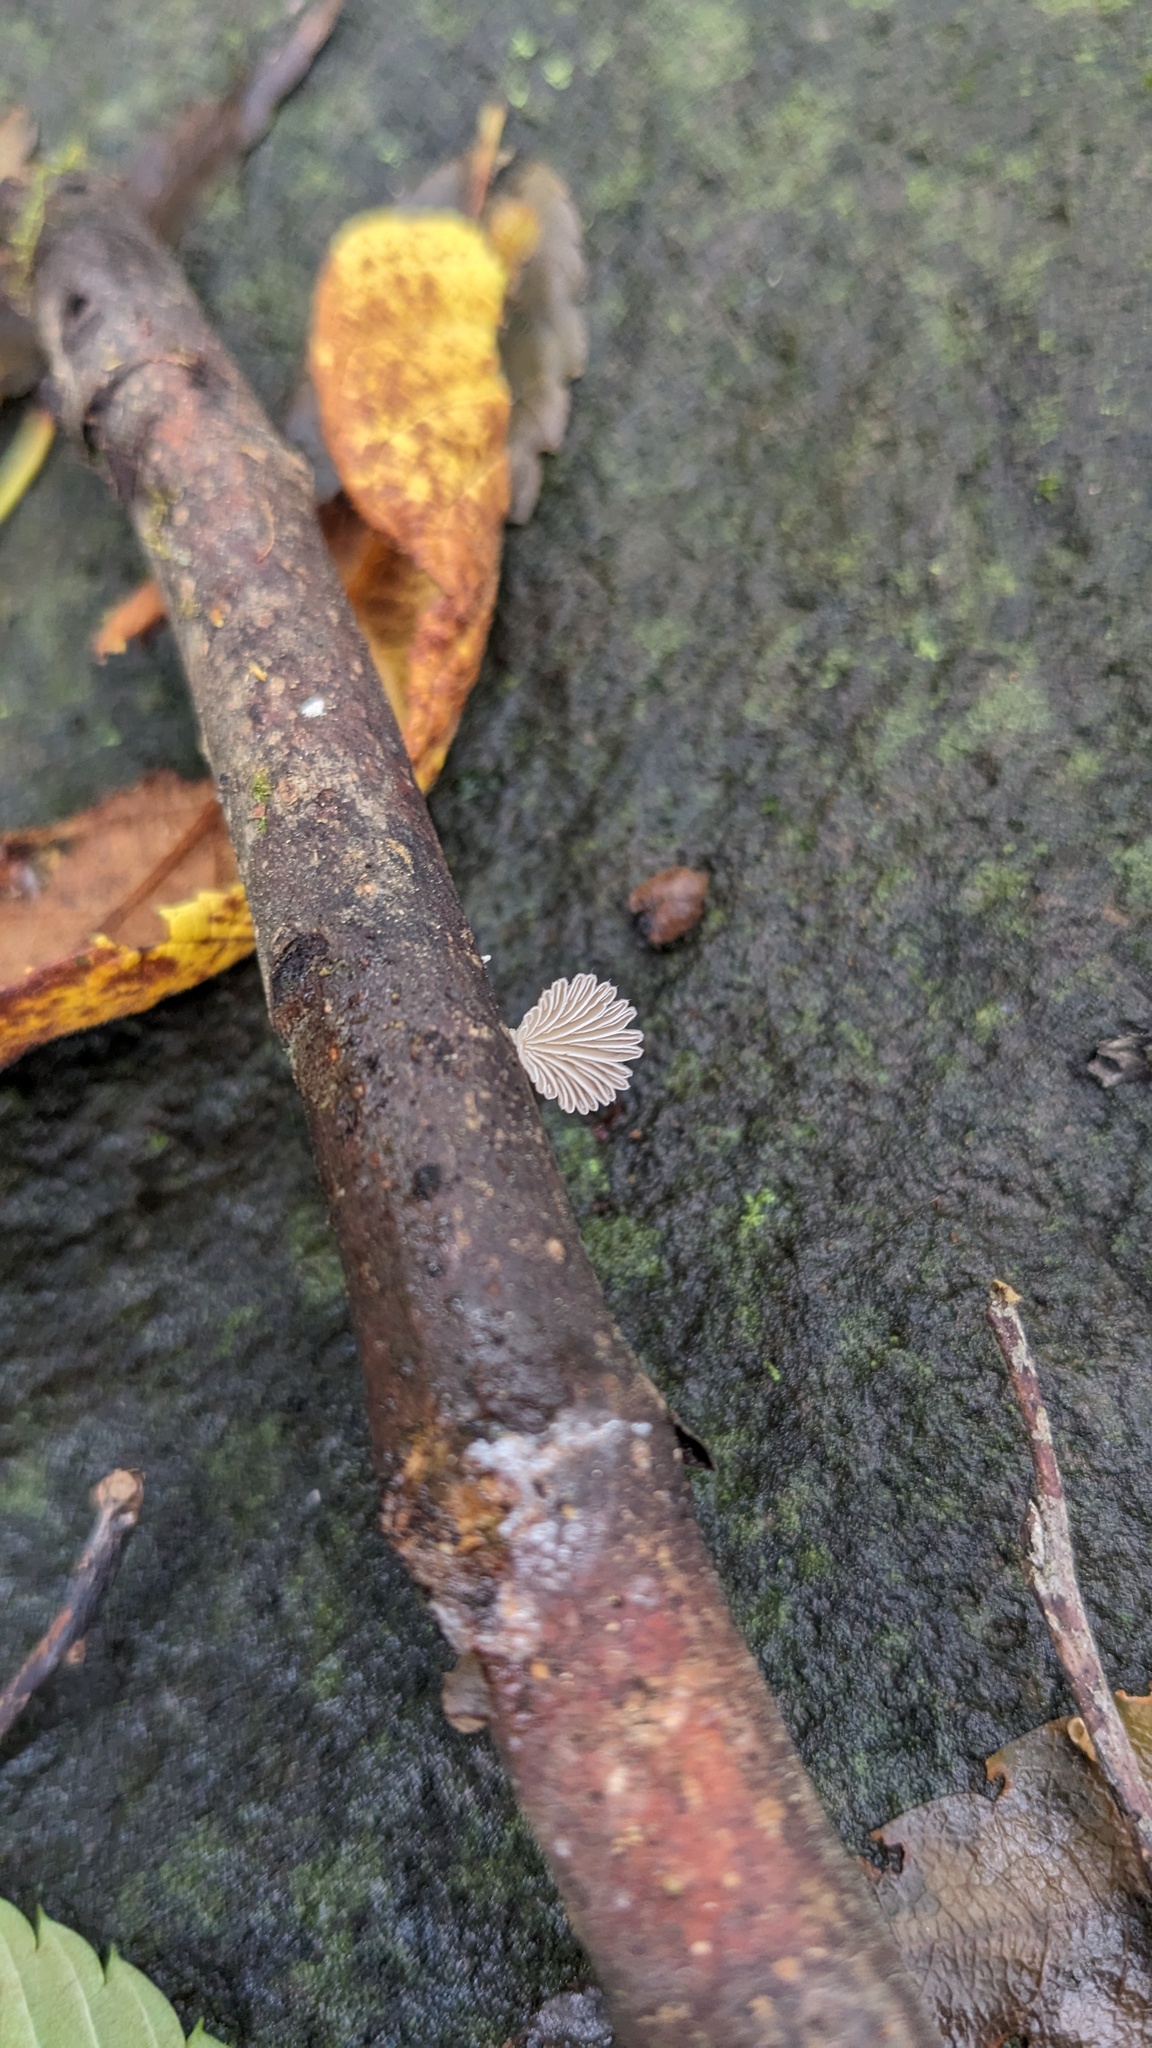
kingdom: Fungi
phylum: Basidiomycota
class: Agaricomycetes
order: Agaricales
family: Schizophyllaceae
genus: Schizophyllum
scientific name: Schizophyllum commune
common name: Common porecrust
